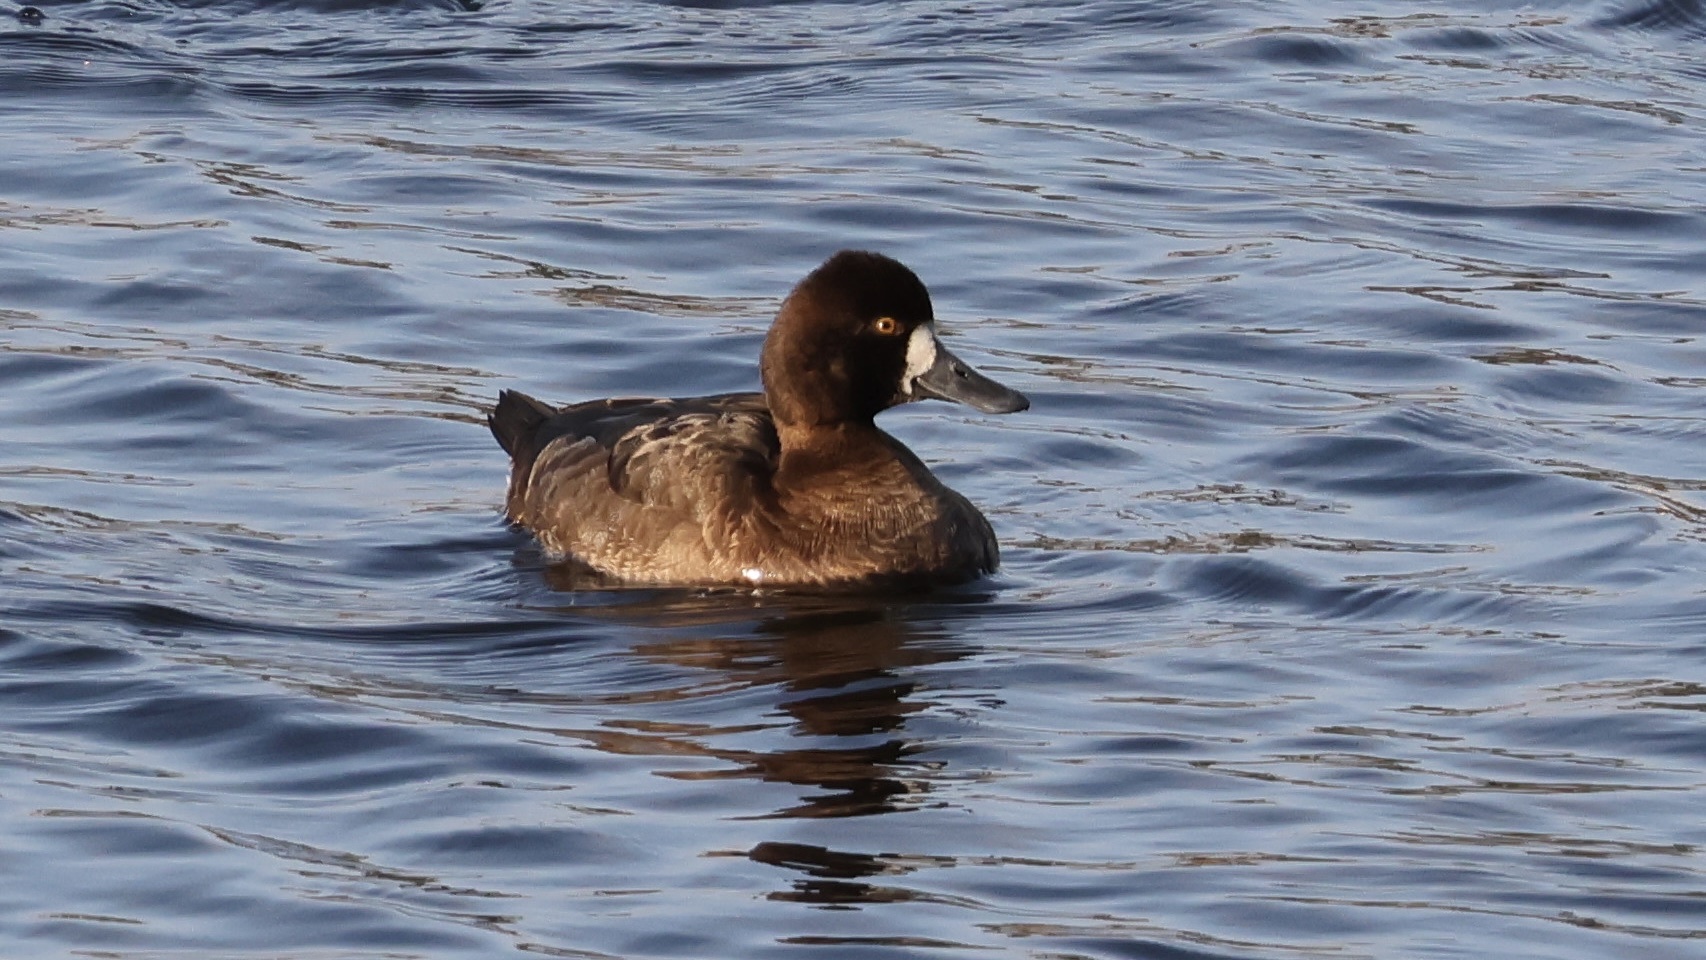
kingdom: Animalia
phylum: Chordata
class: Aves
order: Anseriformes
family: Anatidae
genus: Aythya
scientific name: Aythya affinis
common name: Lesser scaup
